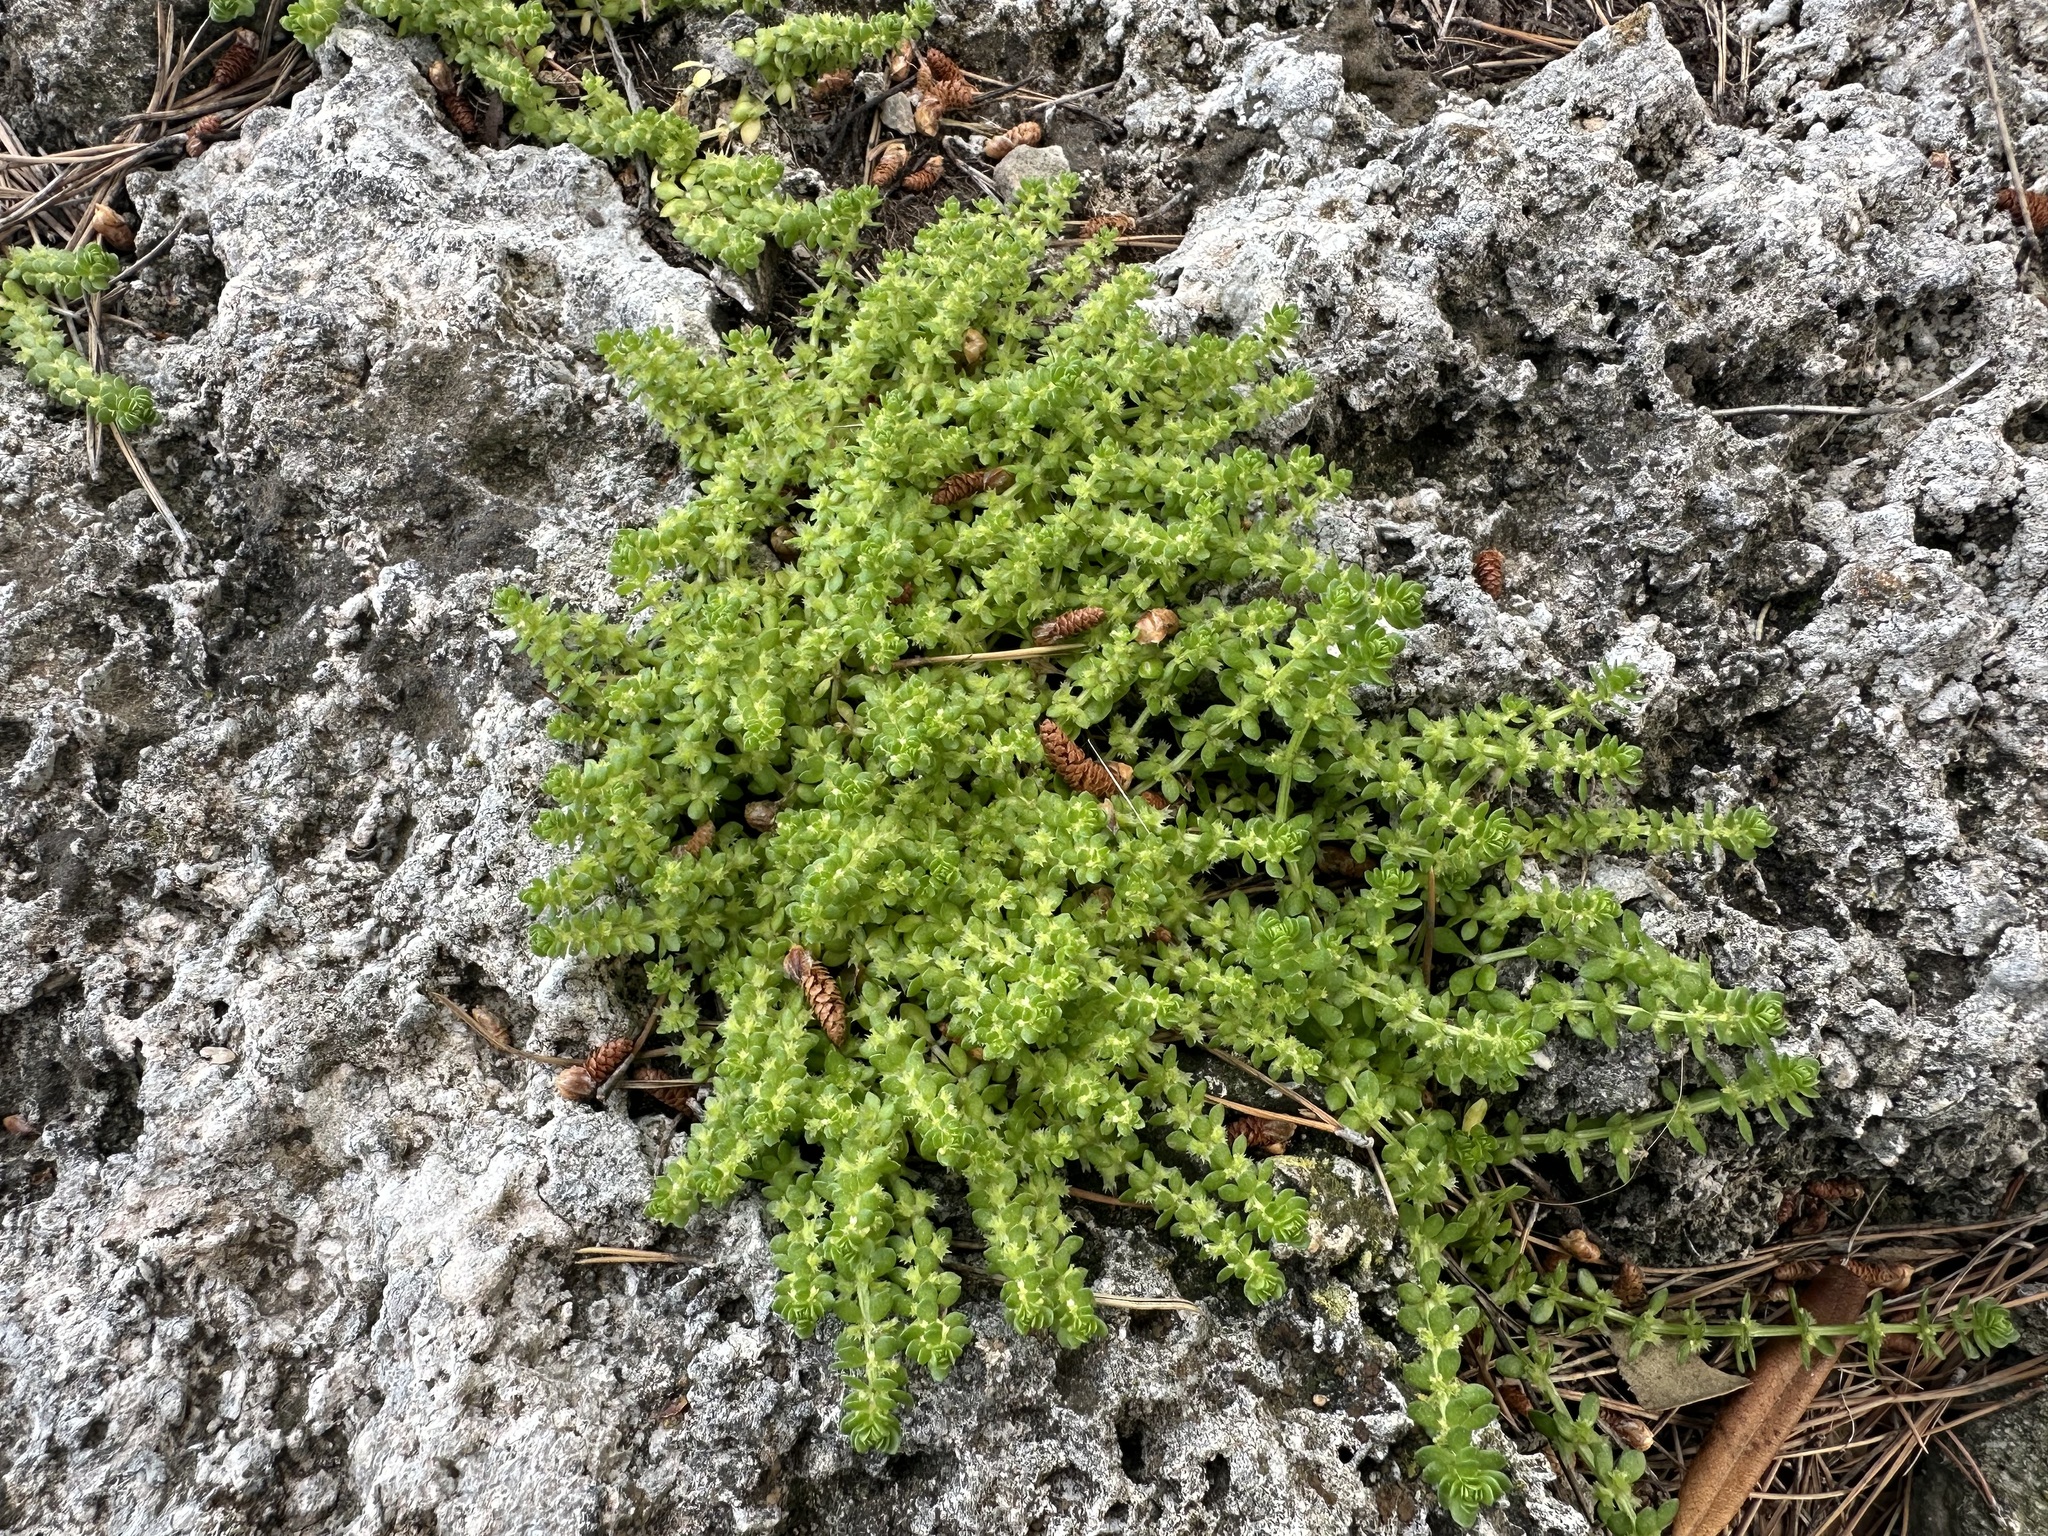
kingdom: Plantae
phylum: Tracheophyta
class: Magnoliopsida
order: Gentianales
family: Rubiaceae
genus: Valantia
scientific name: Valantia muralis
